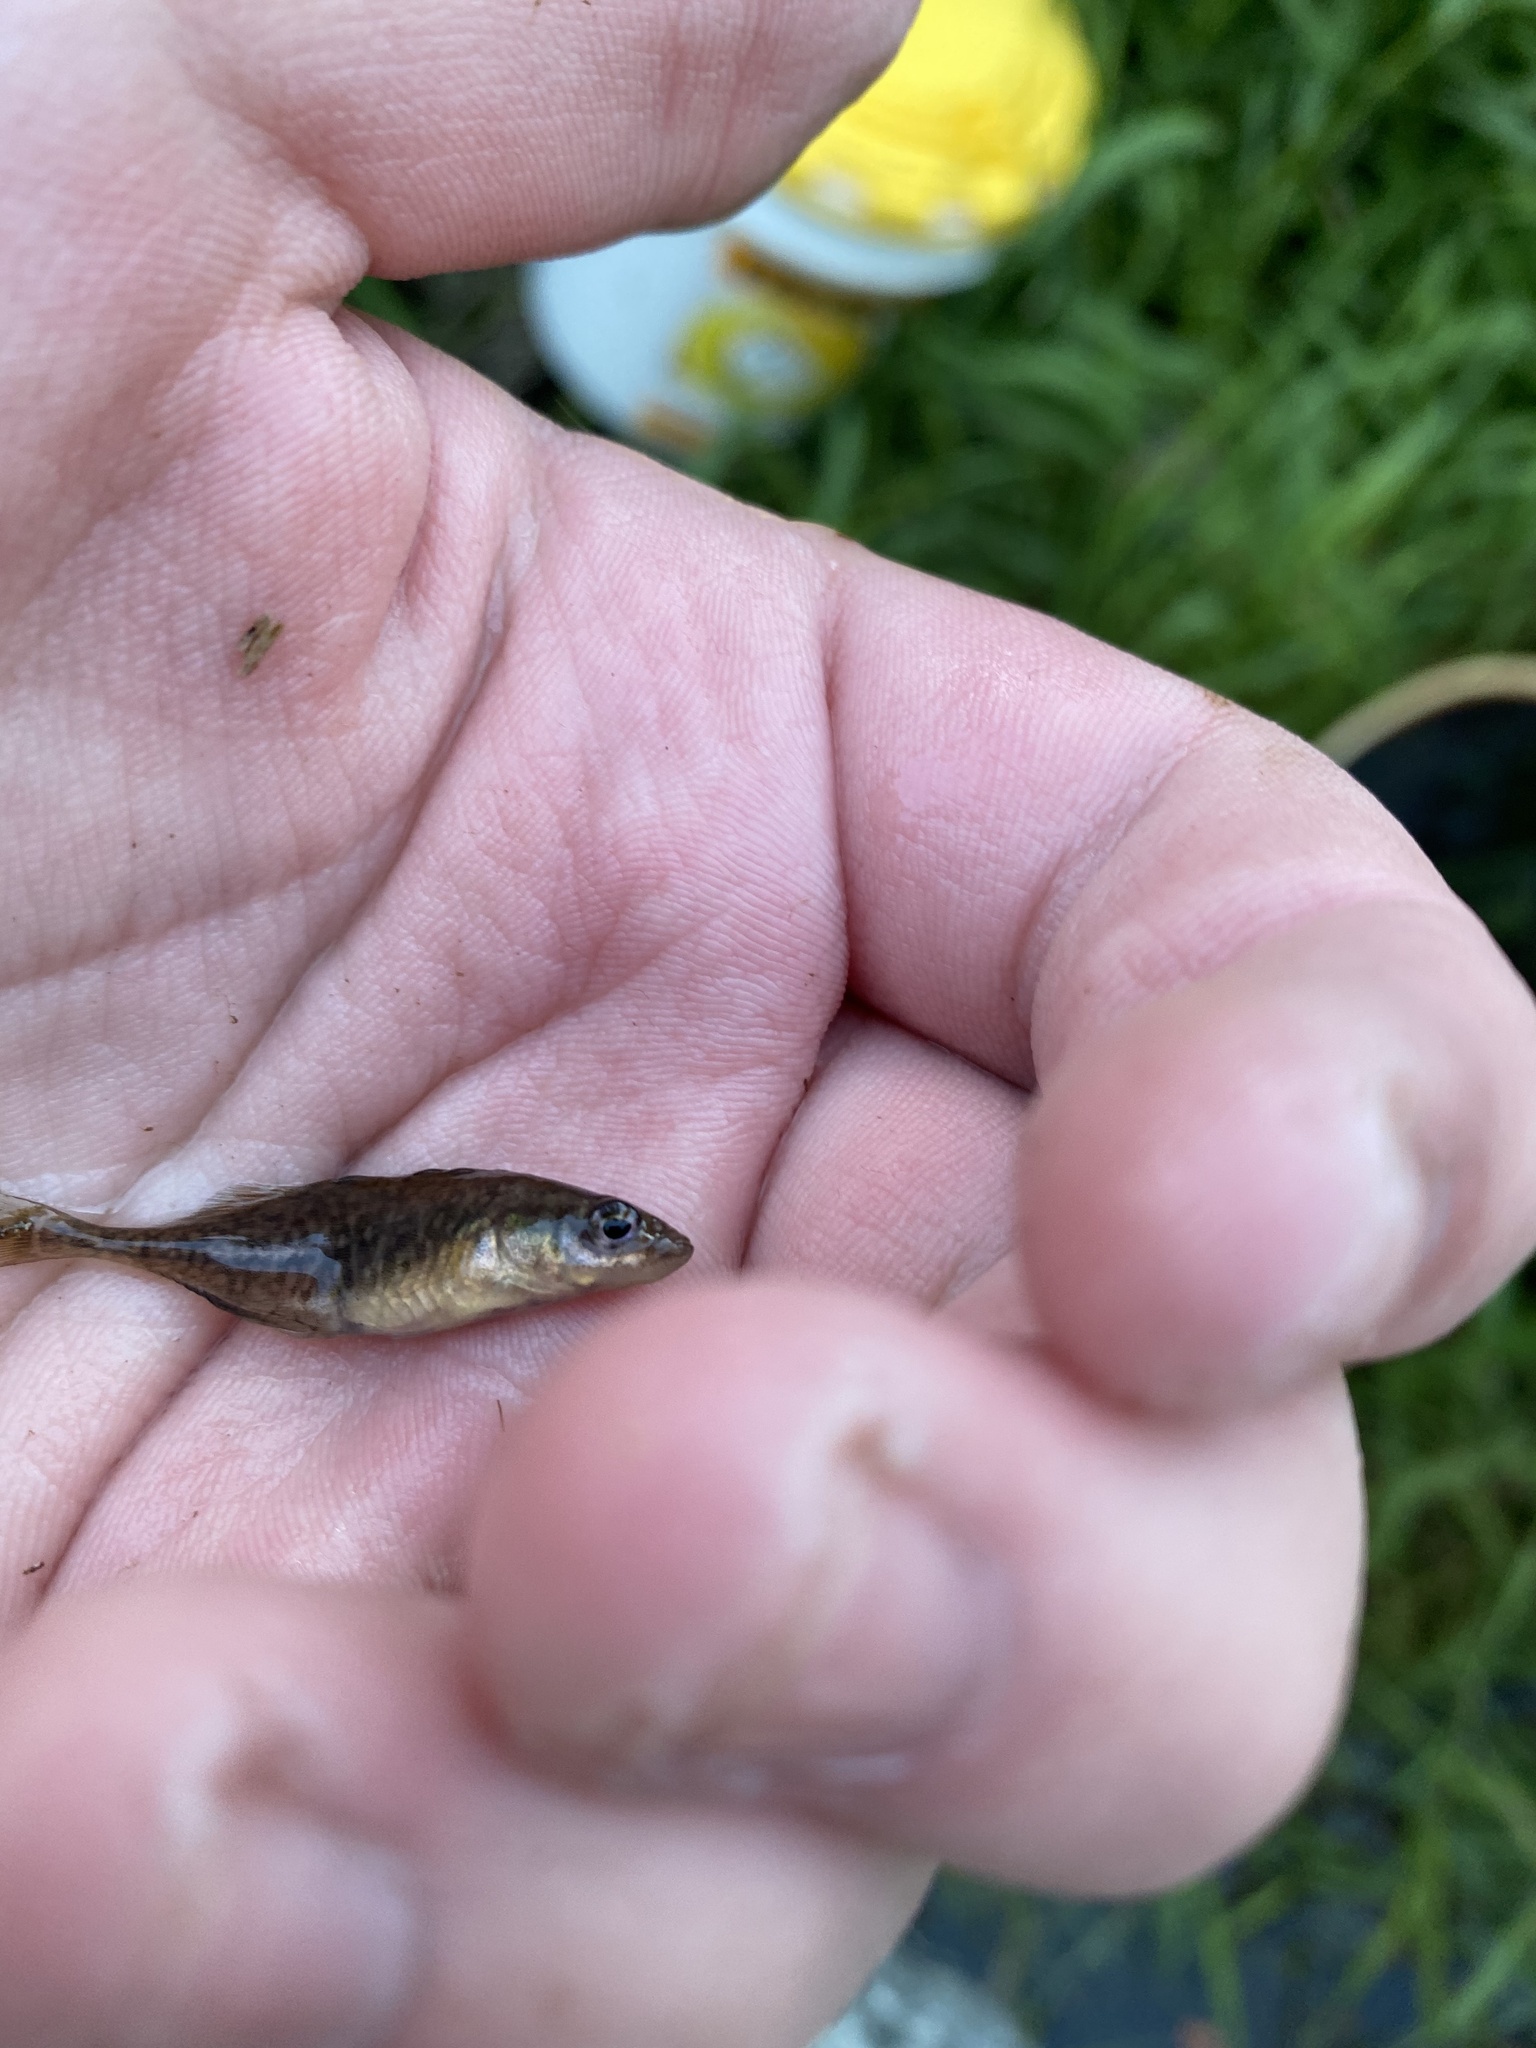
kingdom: Animalia
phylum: Chordata
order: Gasterosteiformes
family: Gasterosteidae
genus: Culaea
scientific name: Culaea inconstans
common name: Brook stickleback
